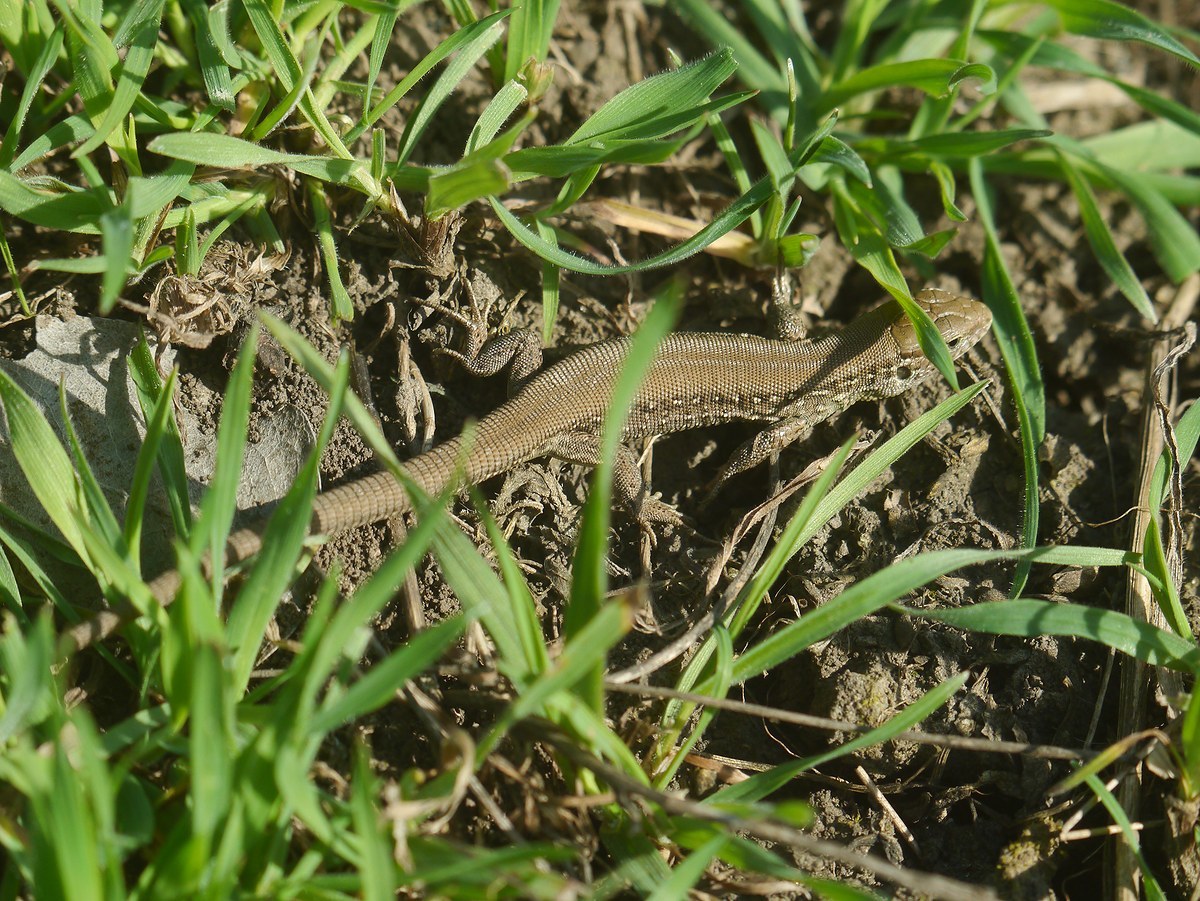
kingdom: Animalia
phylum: Chordata
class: Squamata
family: Lacertidae
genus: Lacerta
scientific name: Lacerta agilis
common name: Sand lizard
